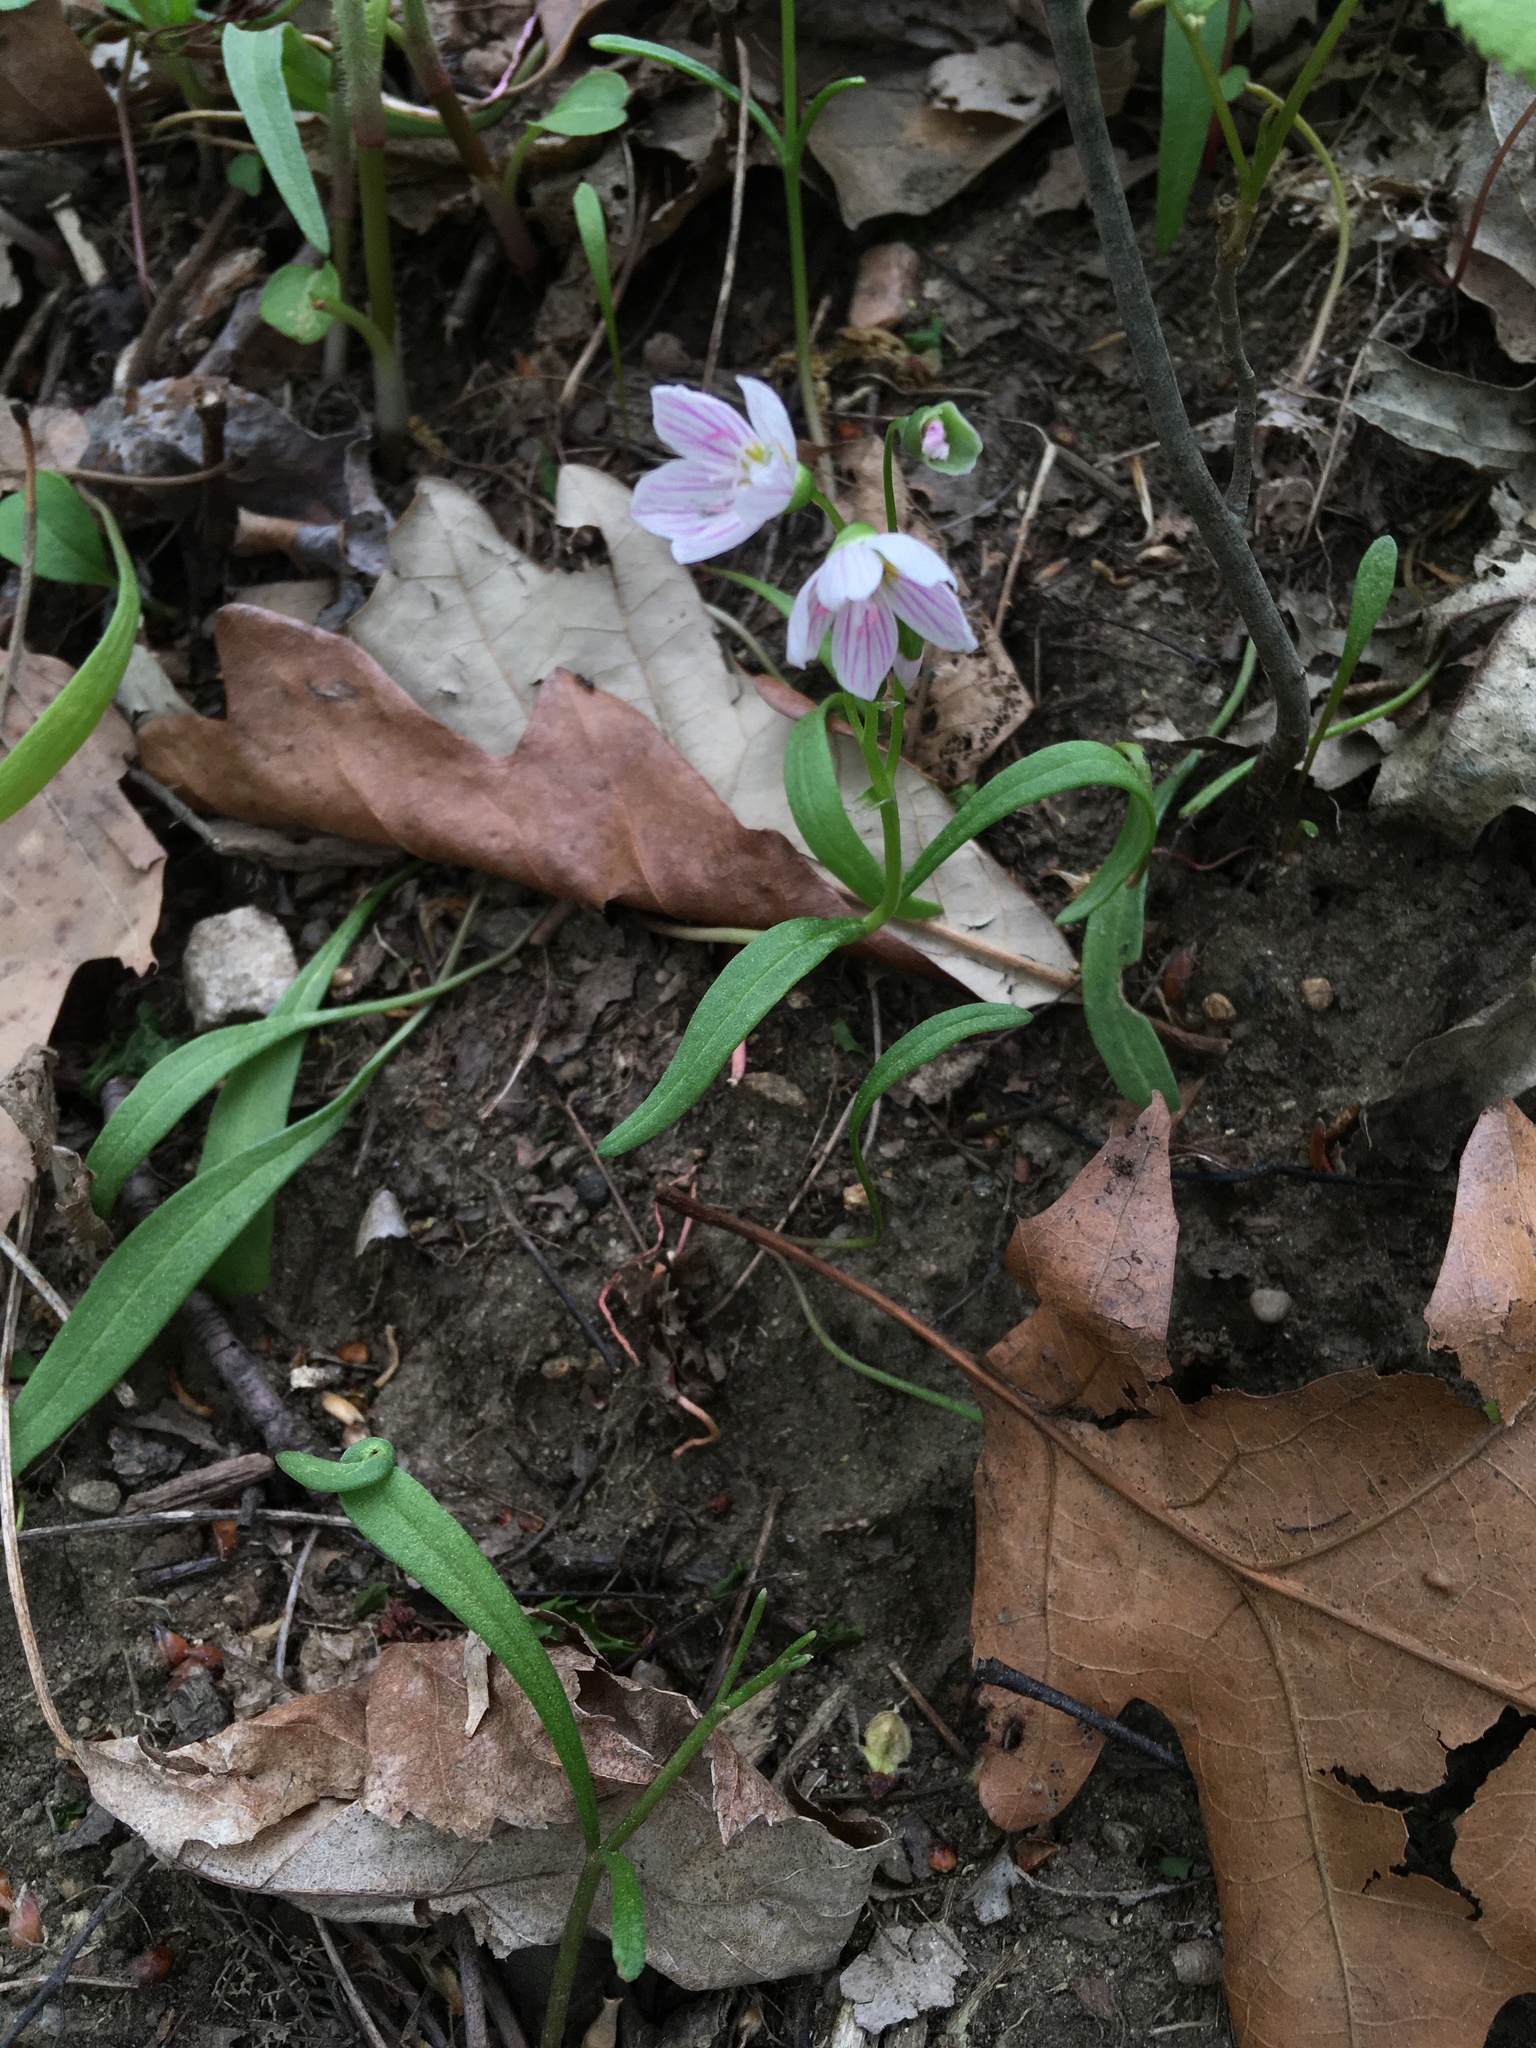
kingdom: Plantae
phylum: Tracheophyta
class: Magnoliopsida
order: Caryophyllales
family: Montiaceae
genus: Claytonia
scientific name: Claytonia virginica
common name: Virginia springbeauty
